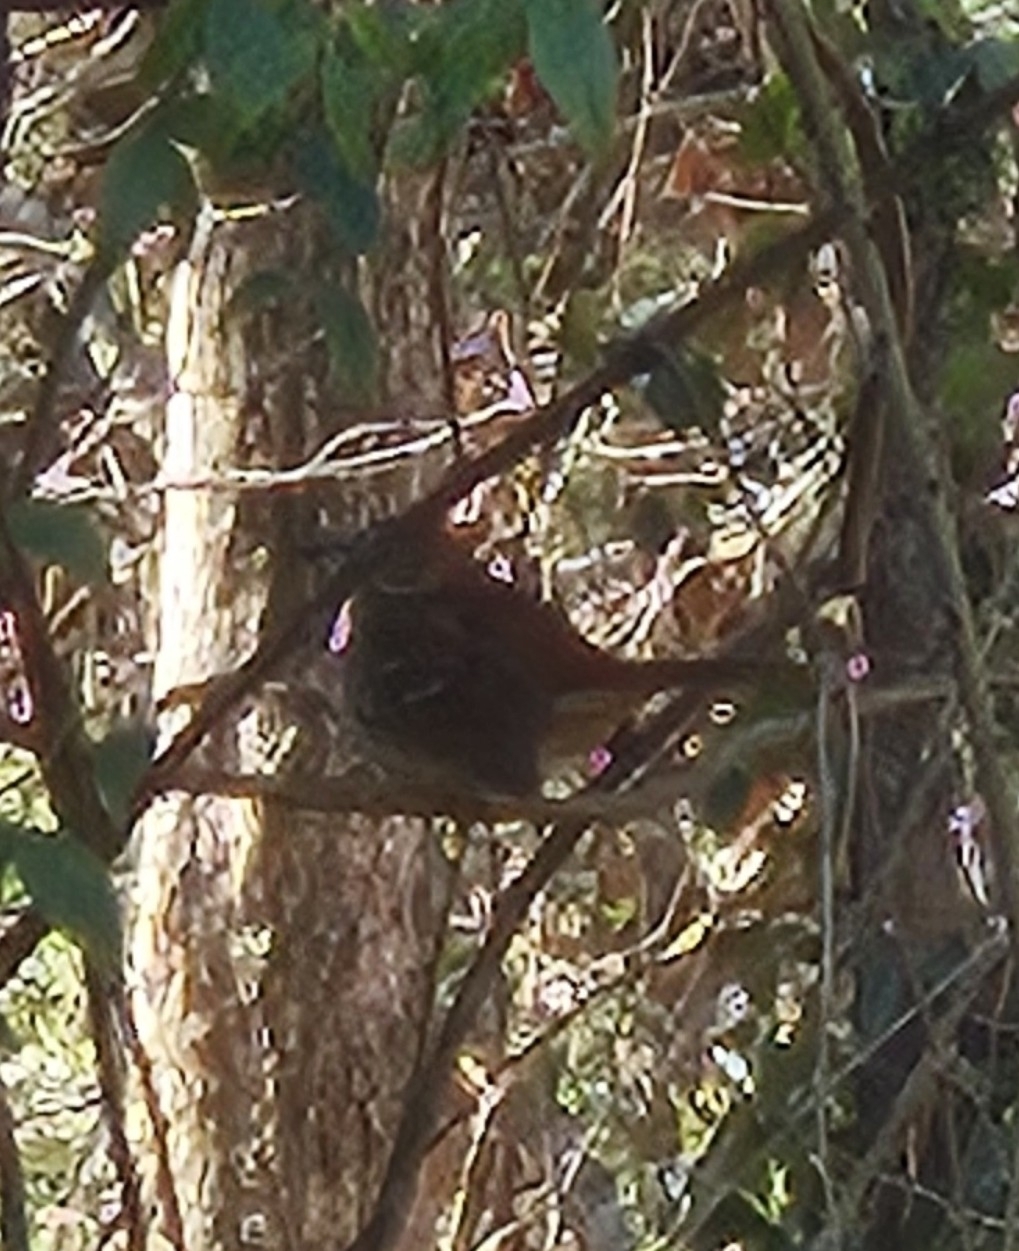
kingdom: Animalia
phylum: Chordata
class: Aves
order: Passeriformes
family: Mimidae
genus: Toxostoma
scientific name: Toxostoma rufum
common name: Brown thrasher
